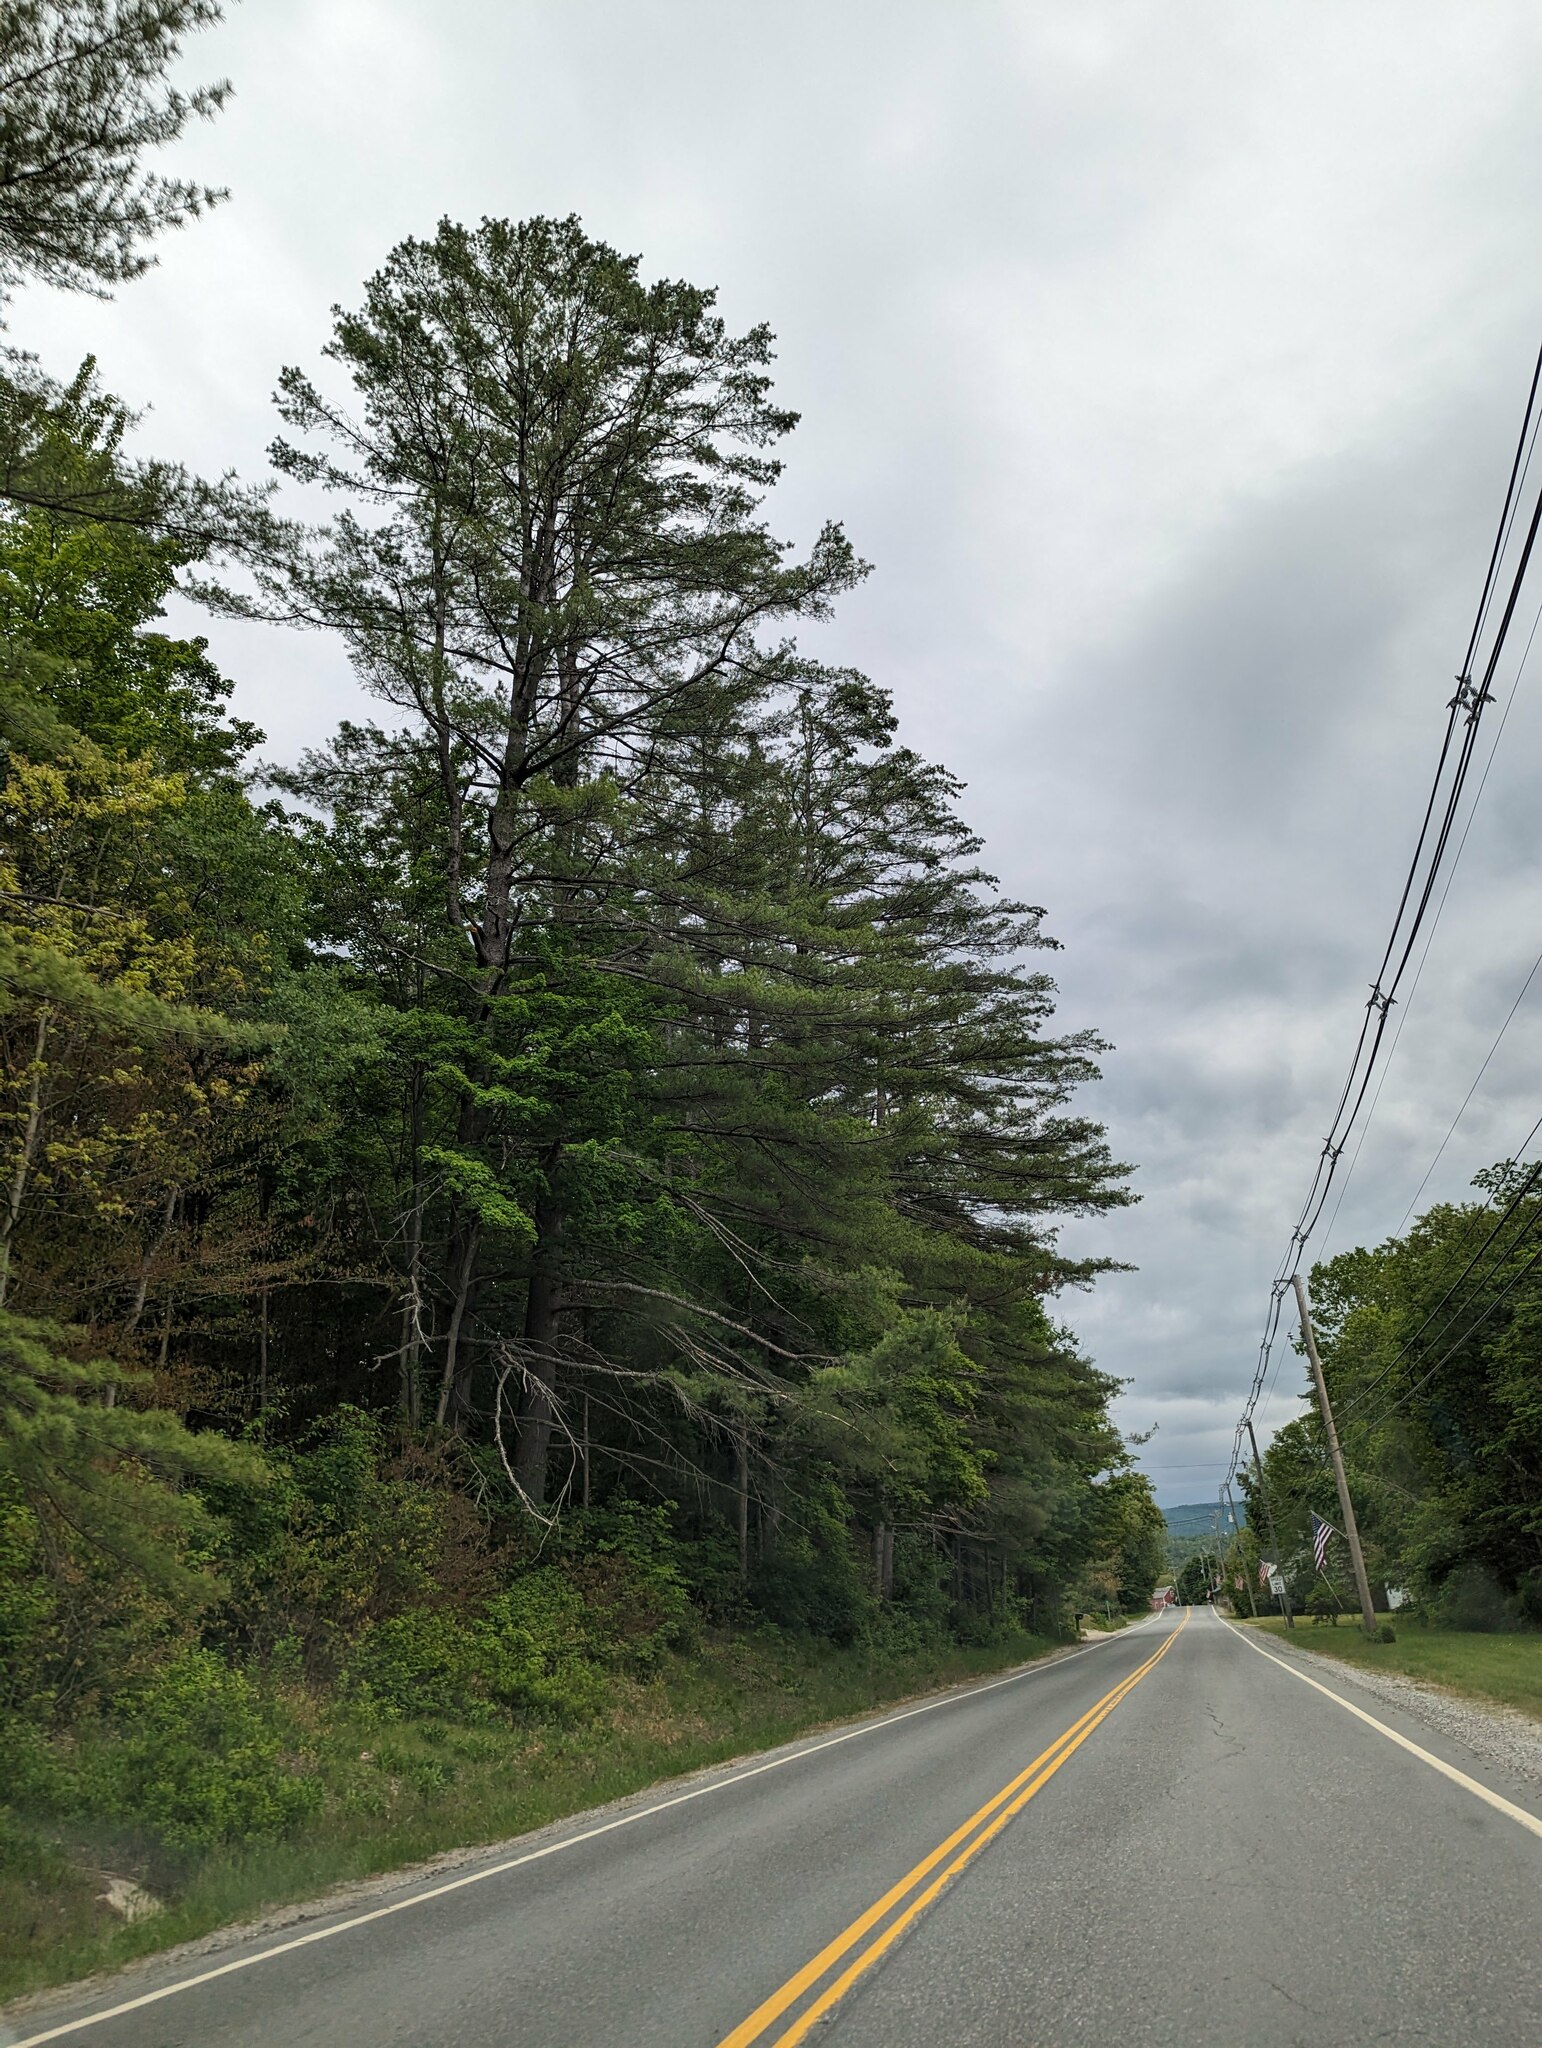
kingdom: Plantae
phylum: Tracheophyta
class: Pinopsida
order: Pinales
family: Pinaceae
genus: Pinus
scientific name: Pinus strobus
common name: Weymouth pine
